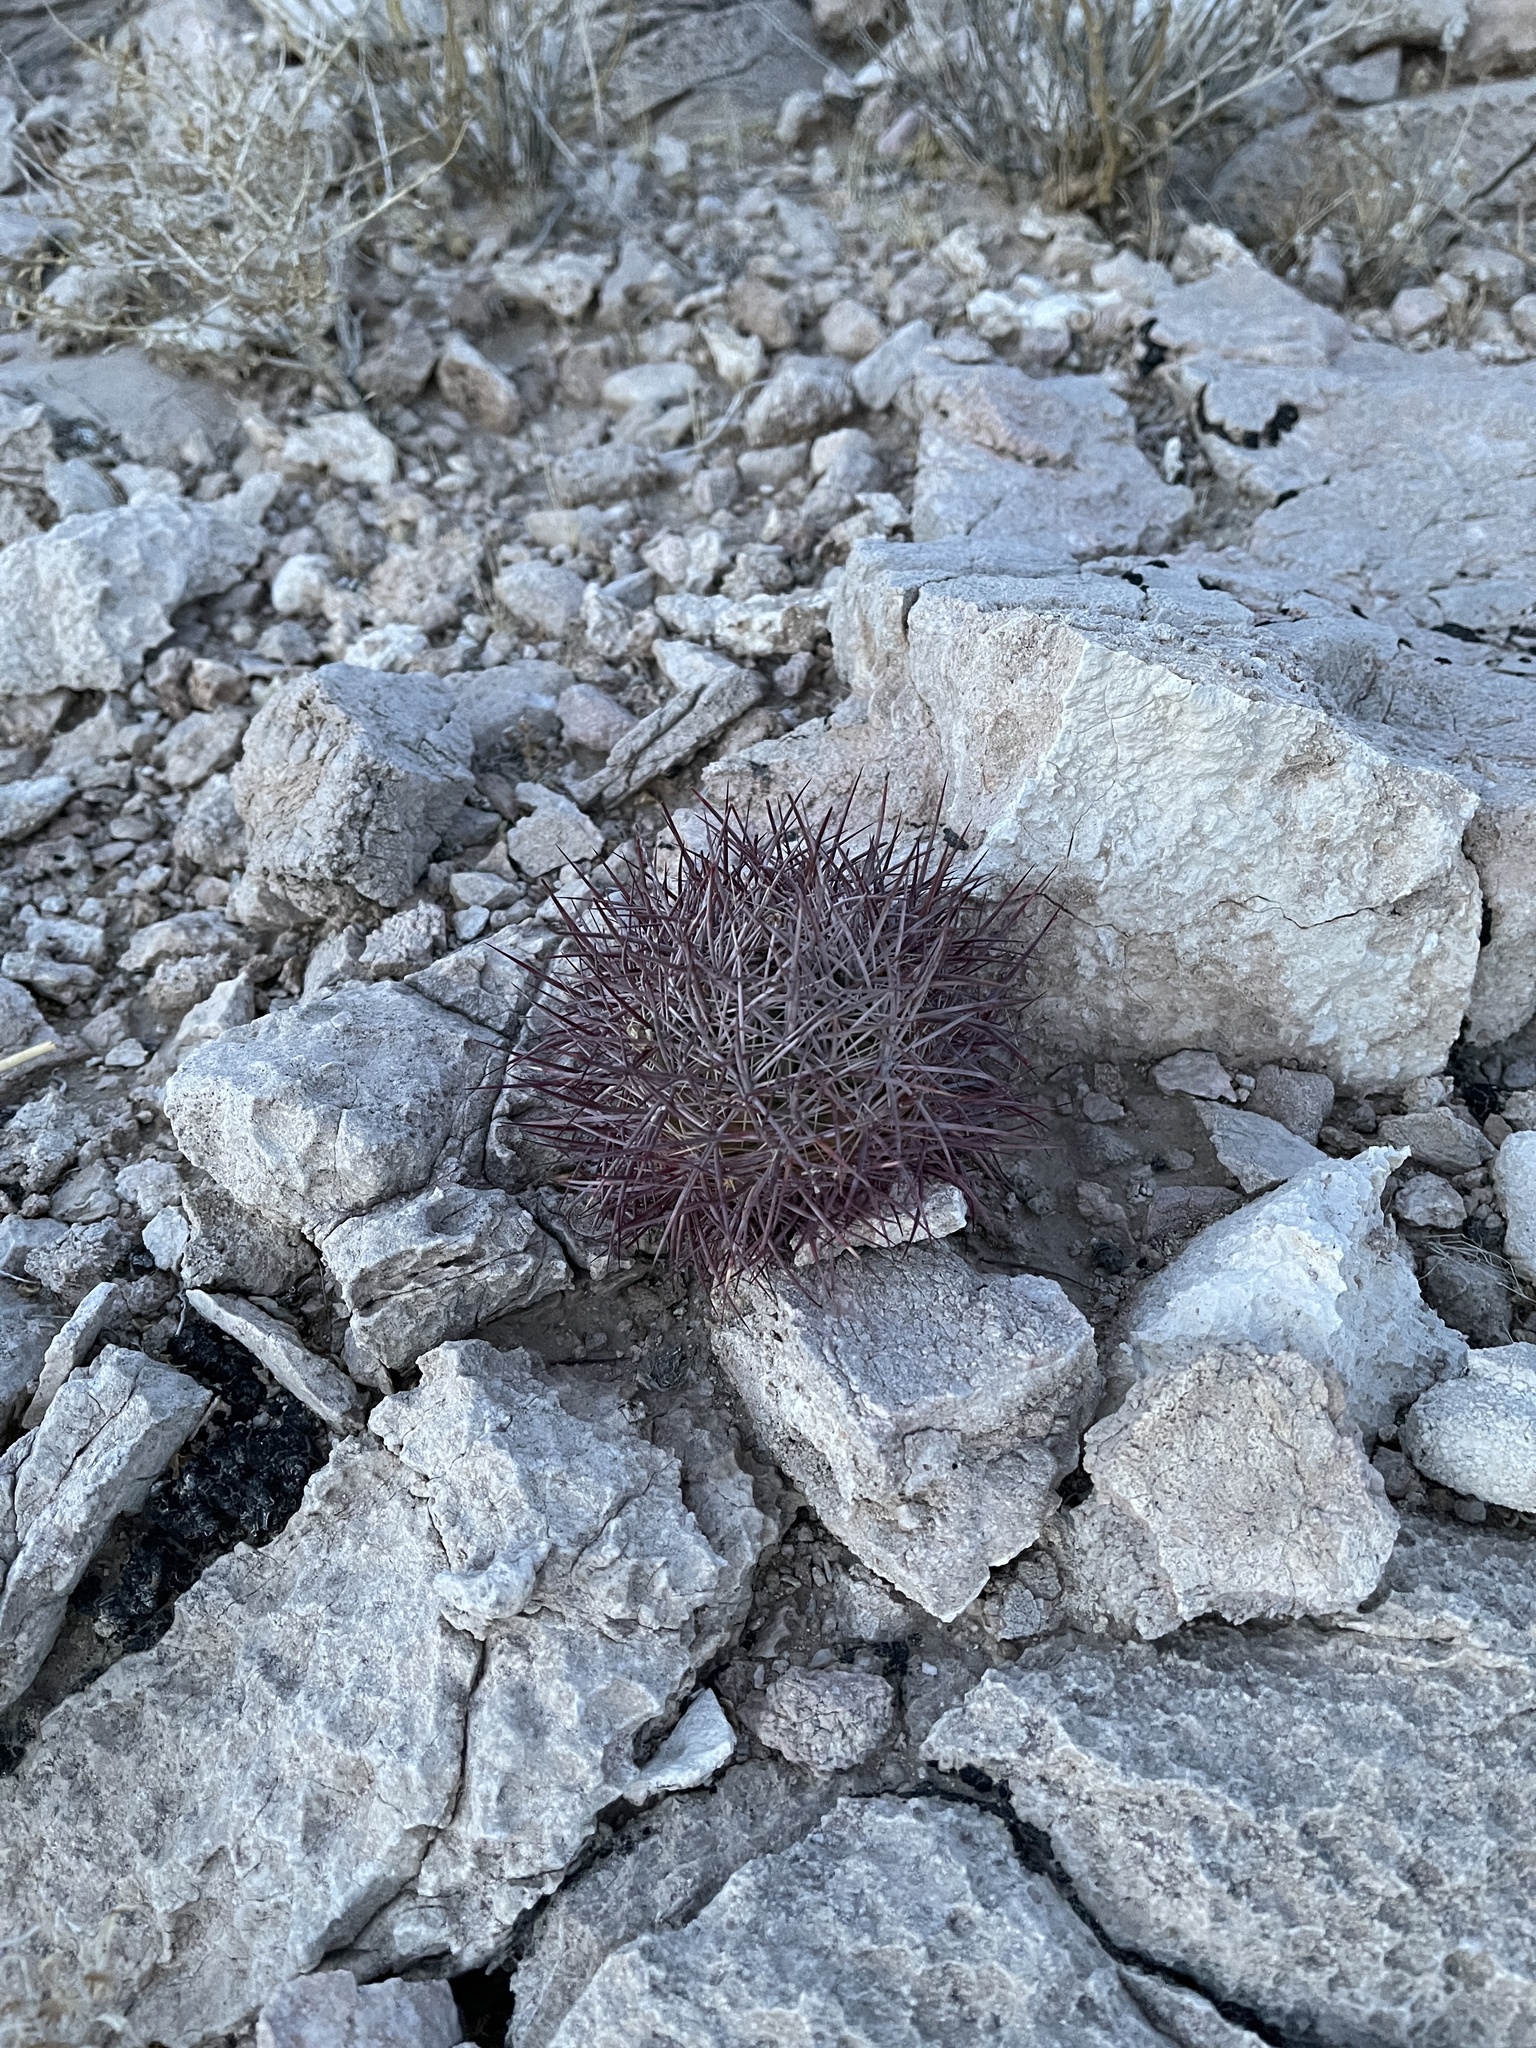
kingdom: Plantae
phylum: Tracheophyta
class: Magnoliopsida
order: Caryophyllales
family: Cactaceae
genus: Sclerocactus
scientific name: Sclerocactus johnsonii
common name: Eight-spine fishhook cactus
